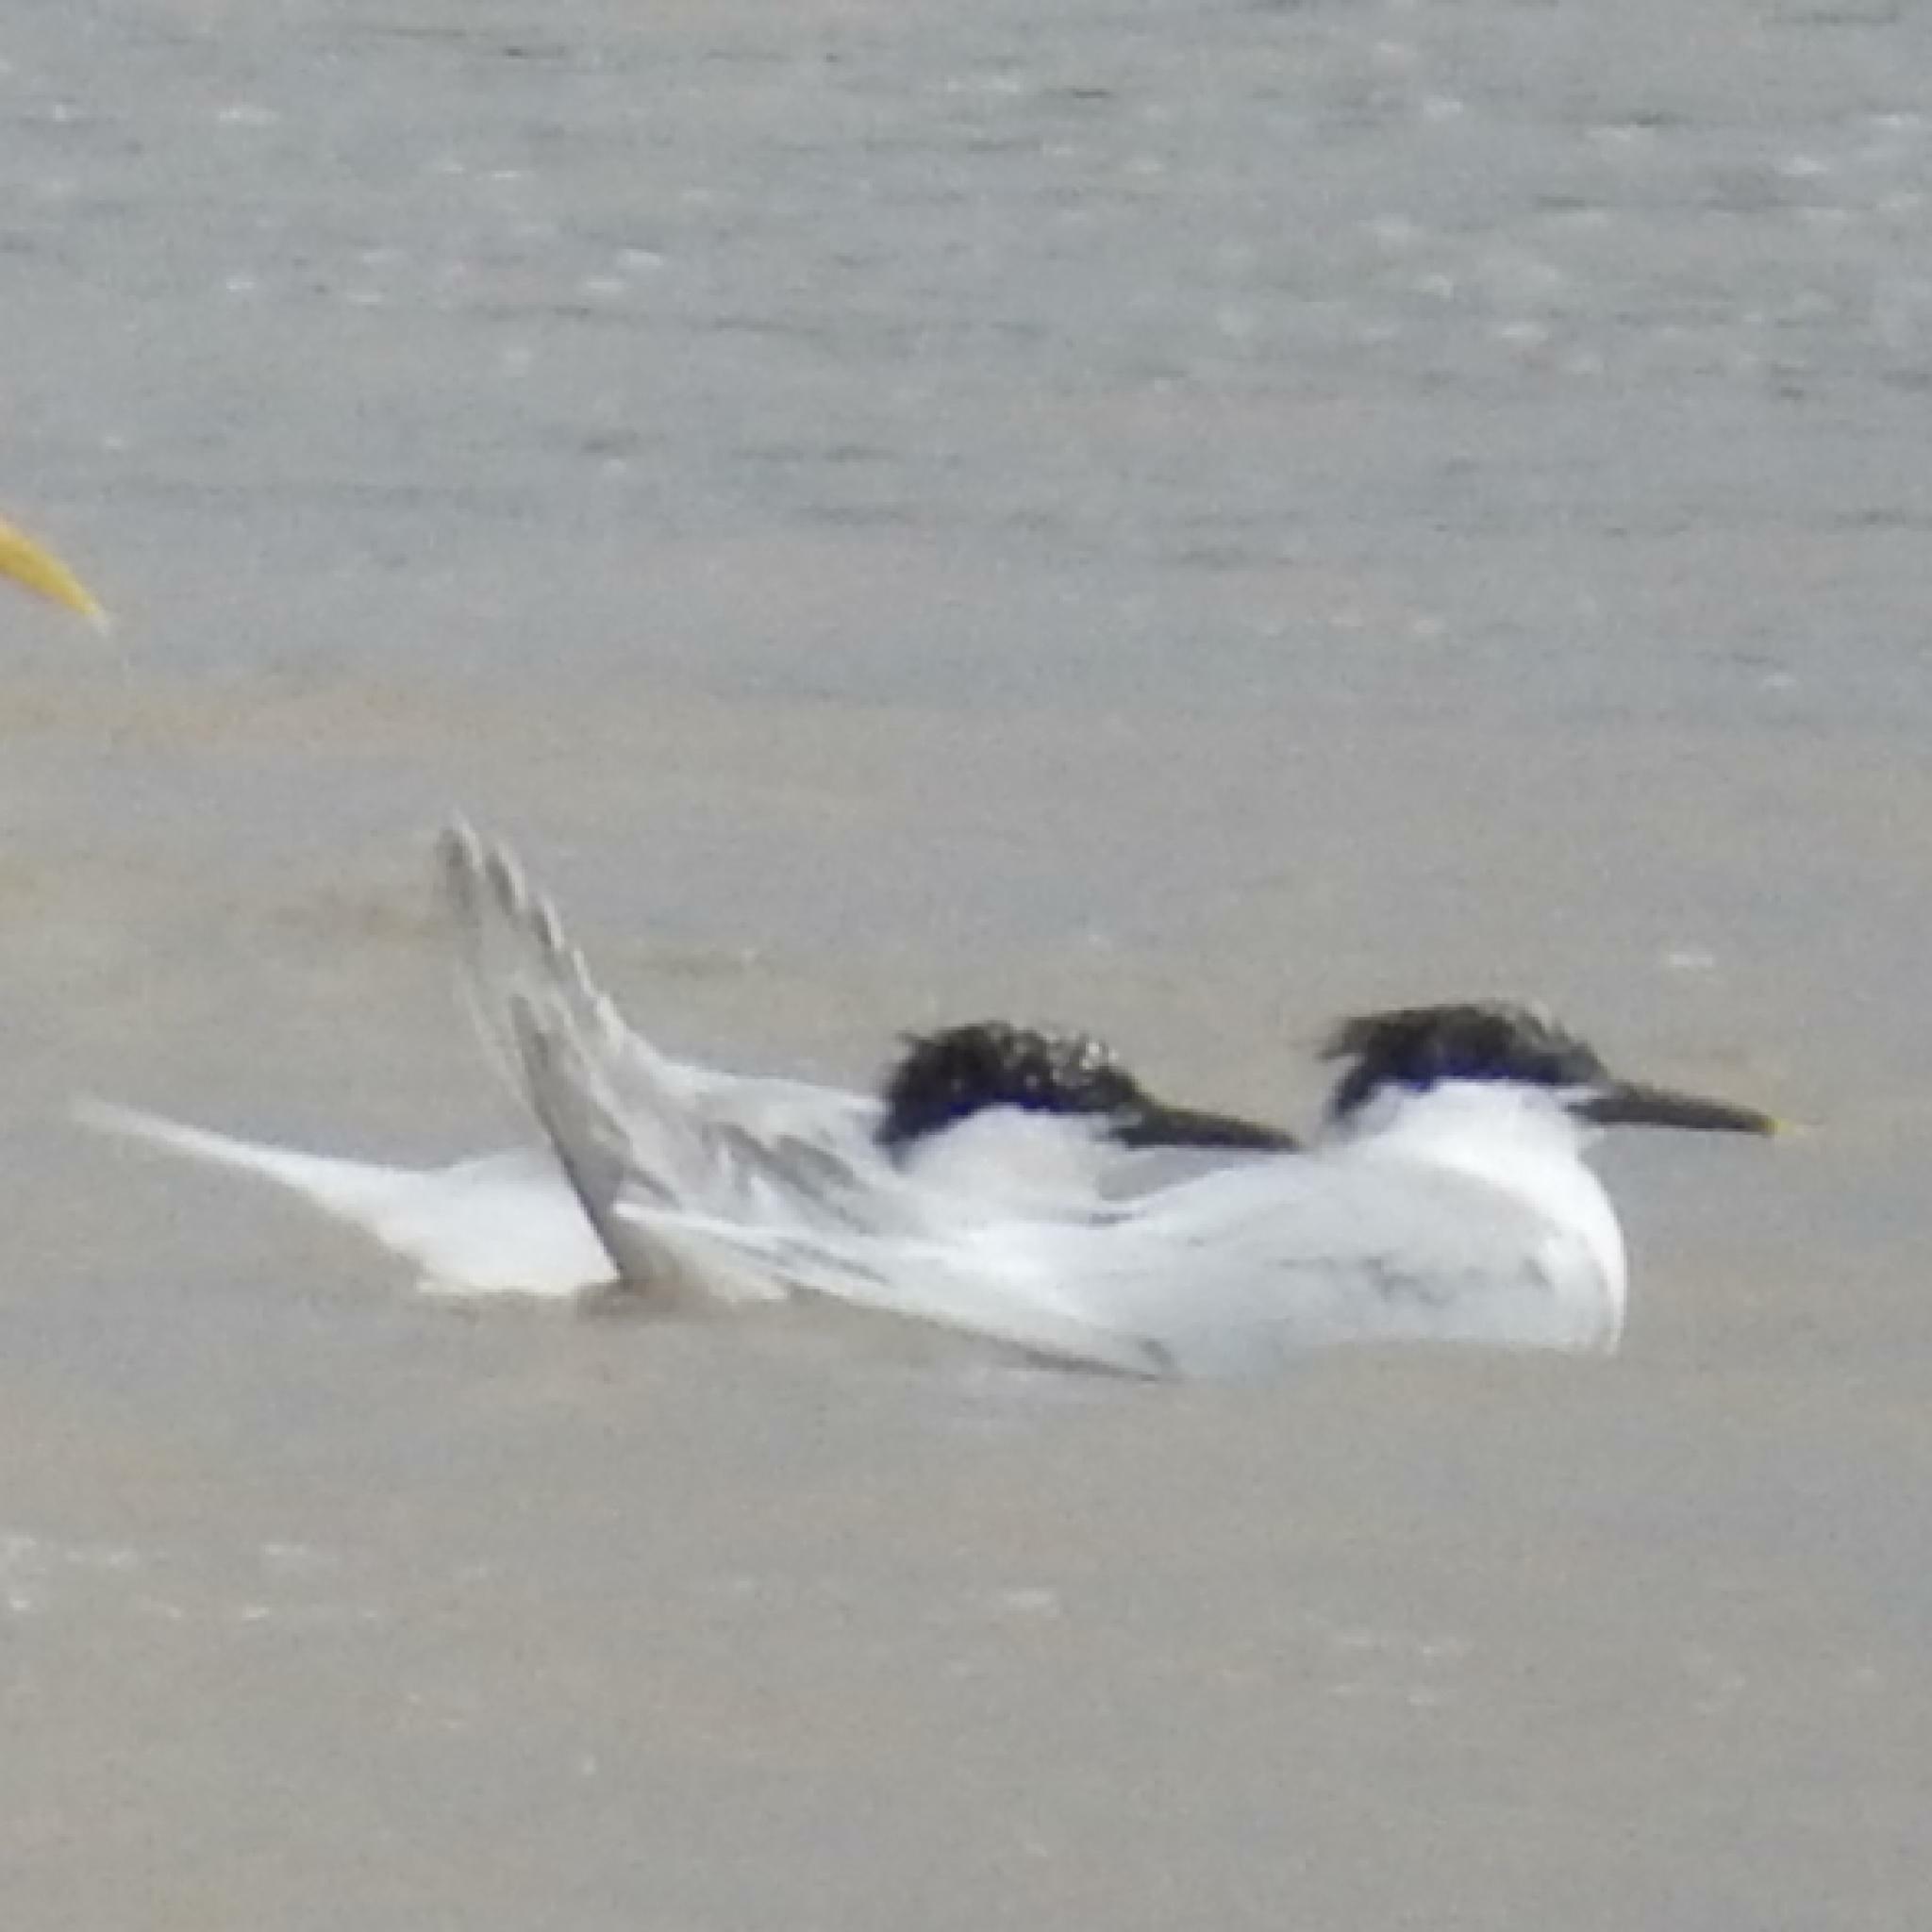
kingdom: Animalia
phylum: Chordata
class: Aves
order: Charadriiformes
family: Laridae
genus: Thalasseus
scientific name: Thalasseus sandvicensis
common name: Sandwich tern
